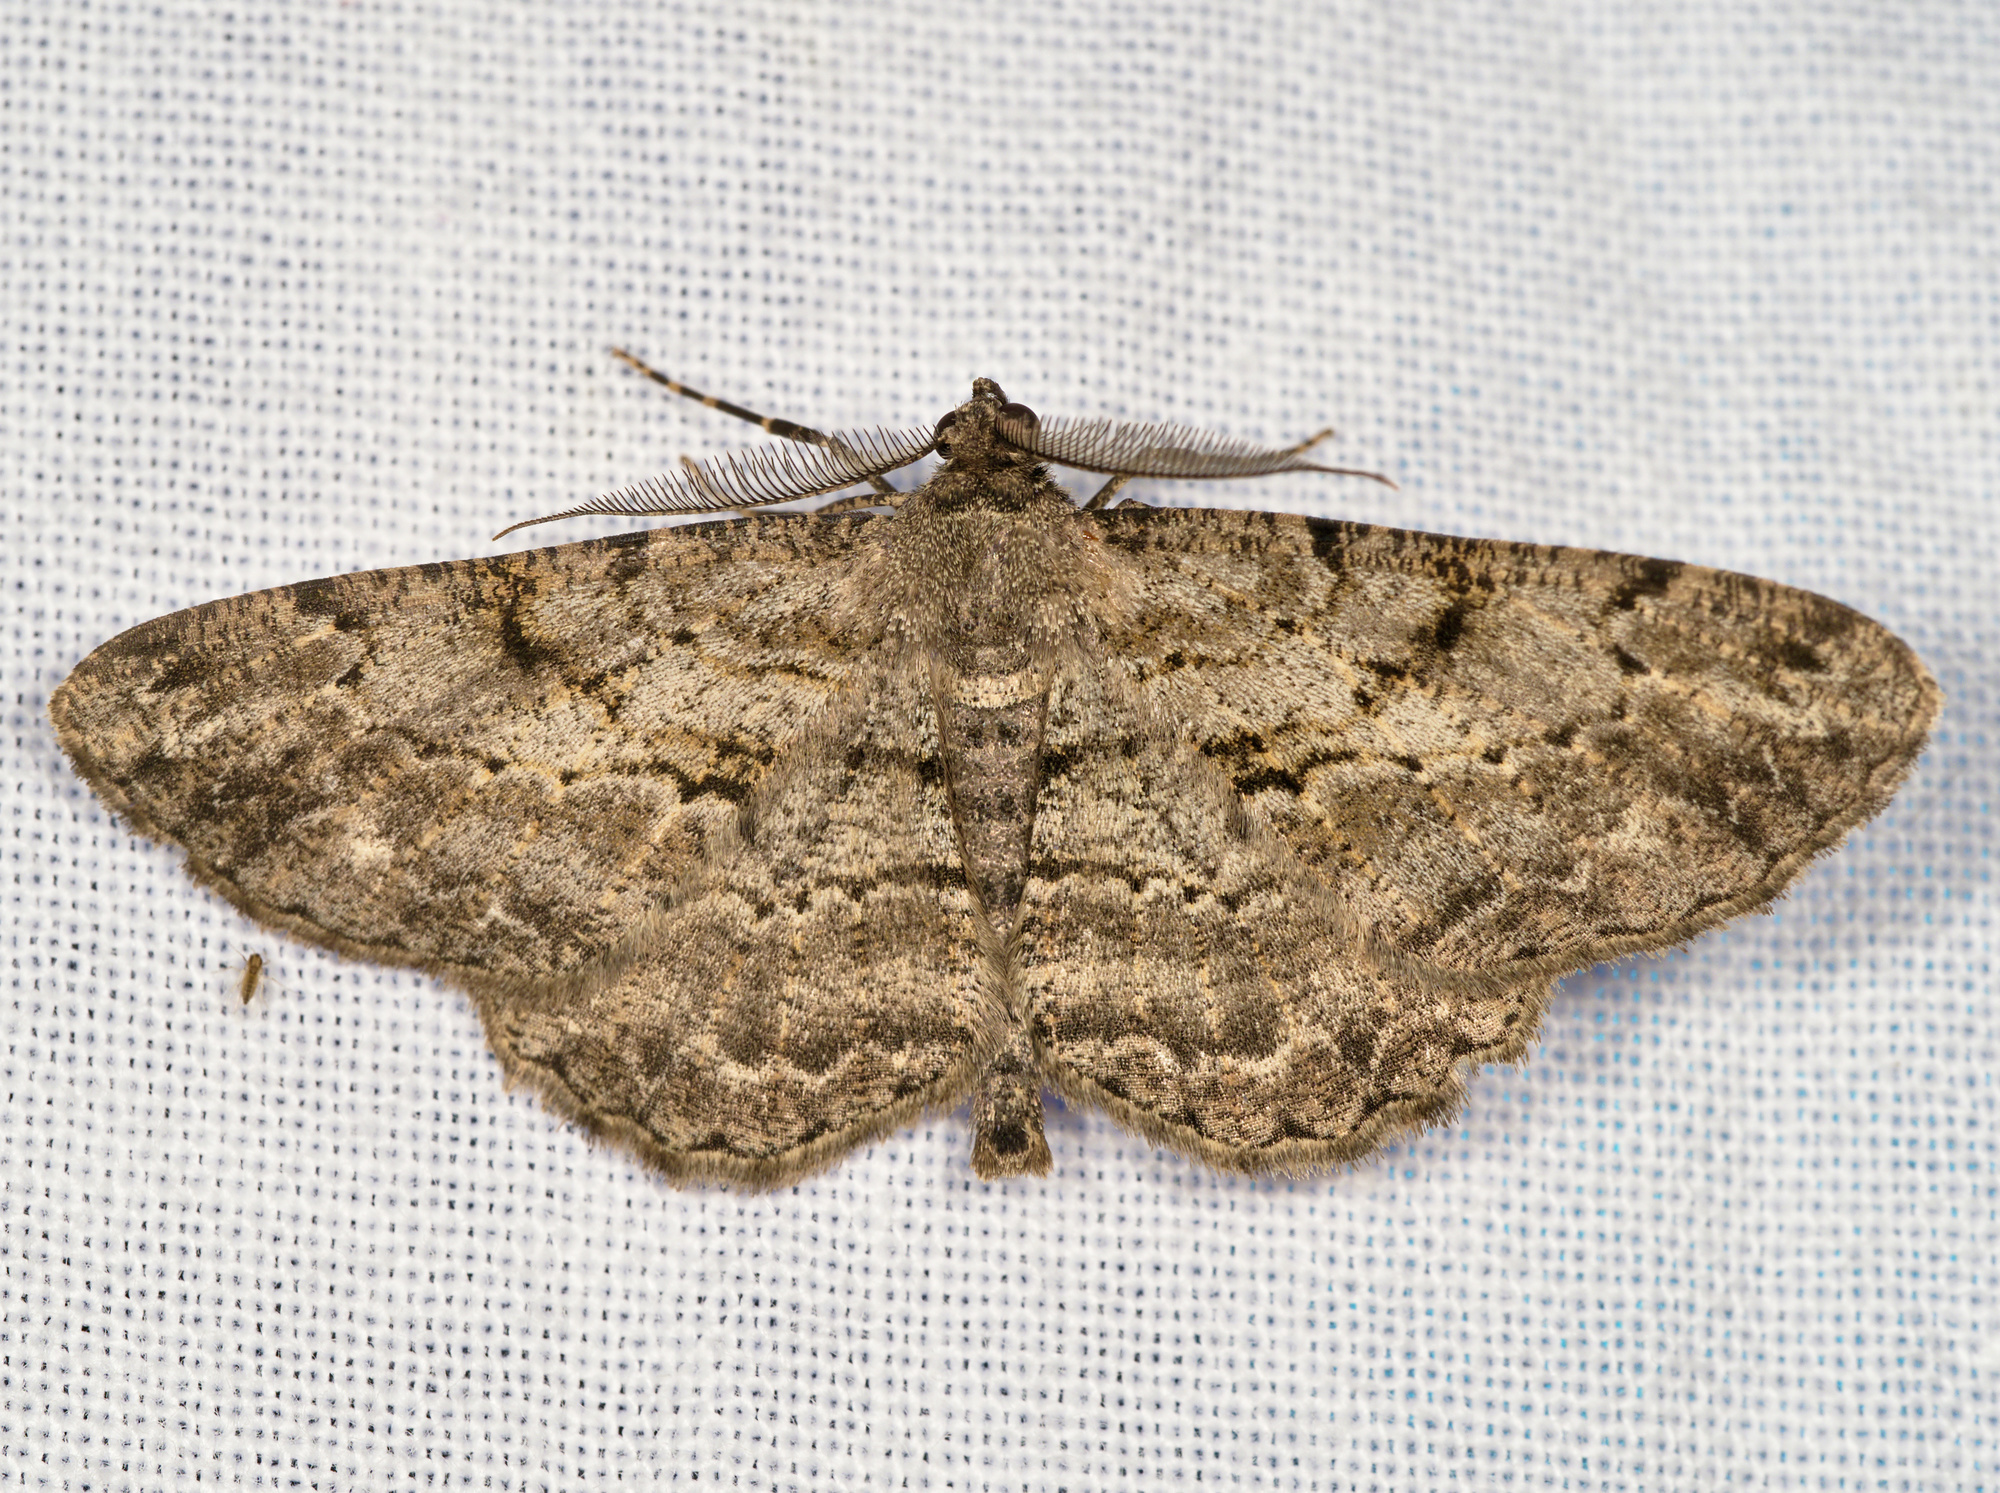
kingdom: Animalia
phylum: Arthropoda
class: Insecta
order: Lepidoptera
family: Geometridae
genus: Peribatodes
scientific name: Peribatodes rhomboidaria
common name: Willow beauty
